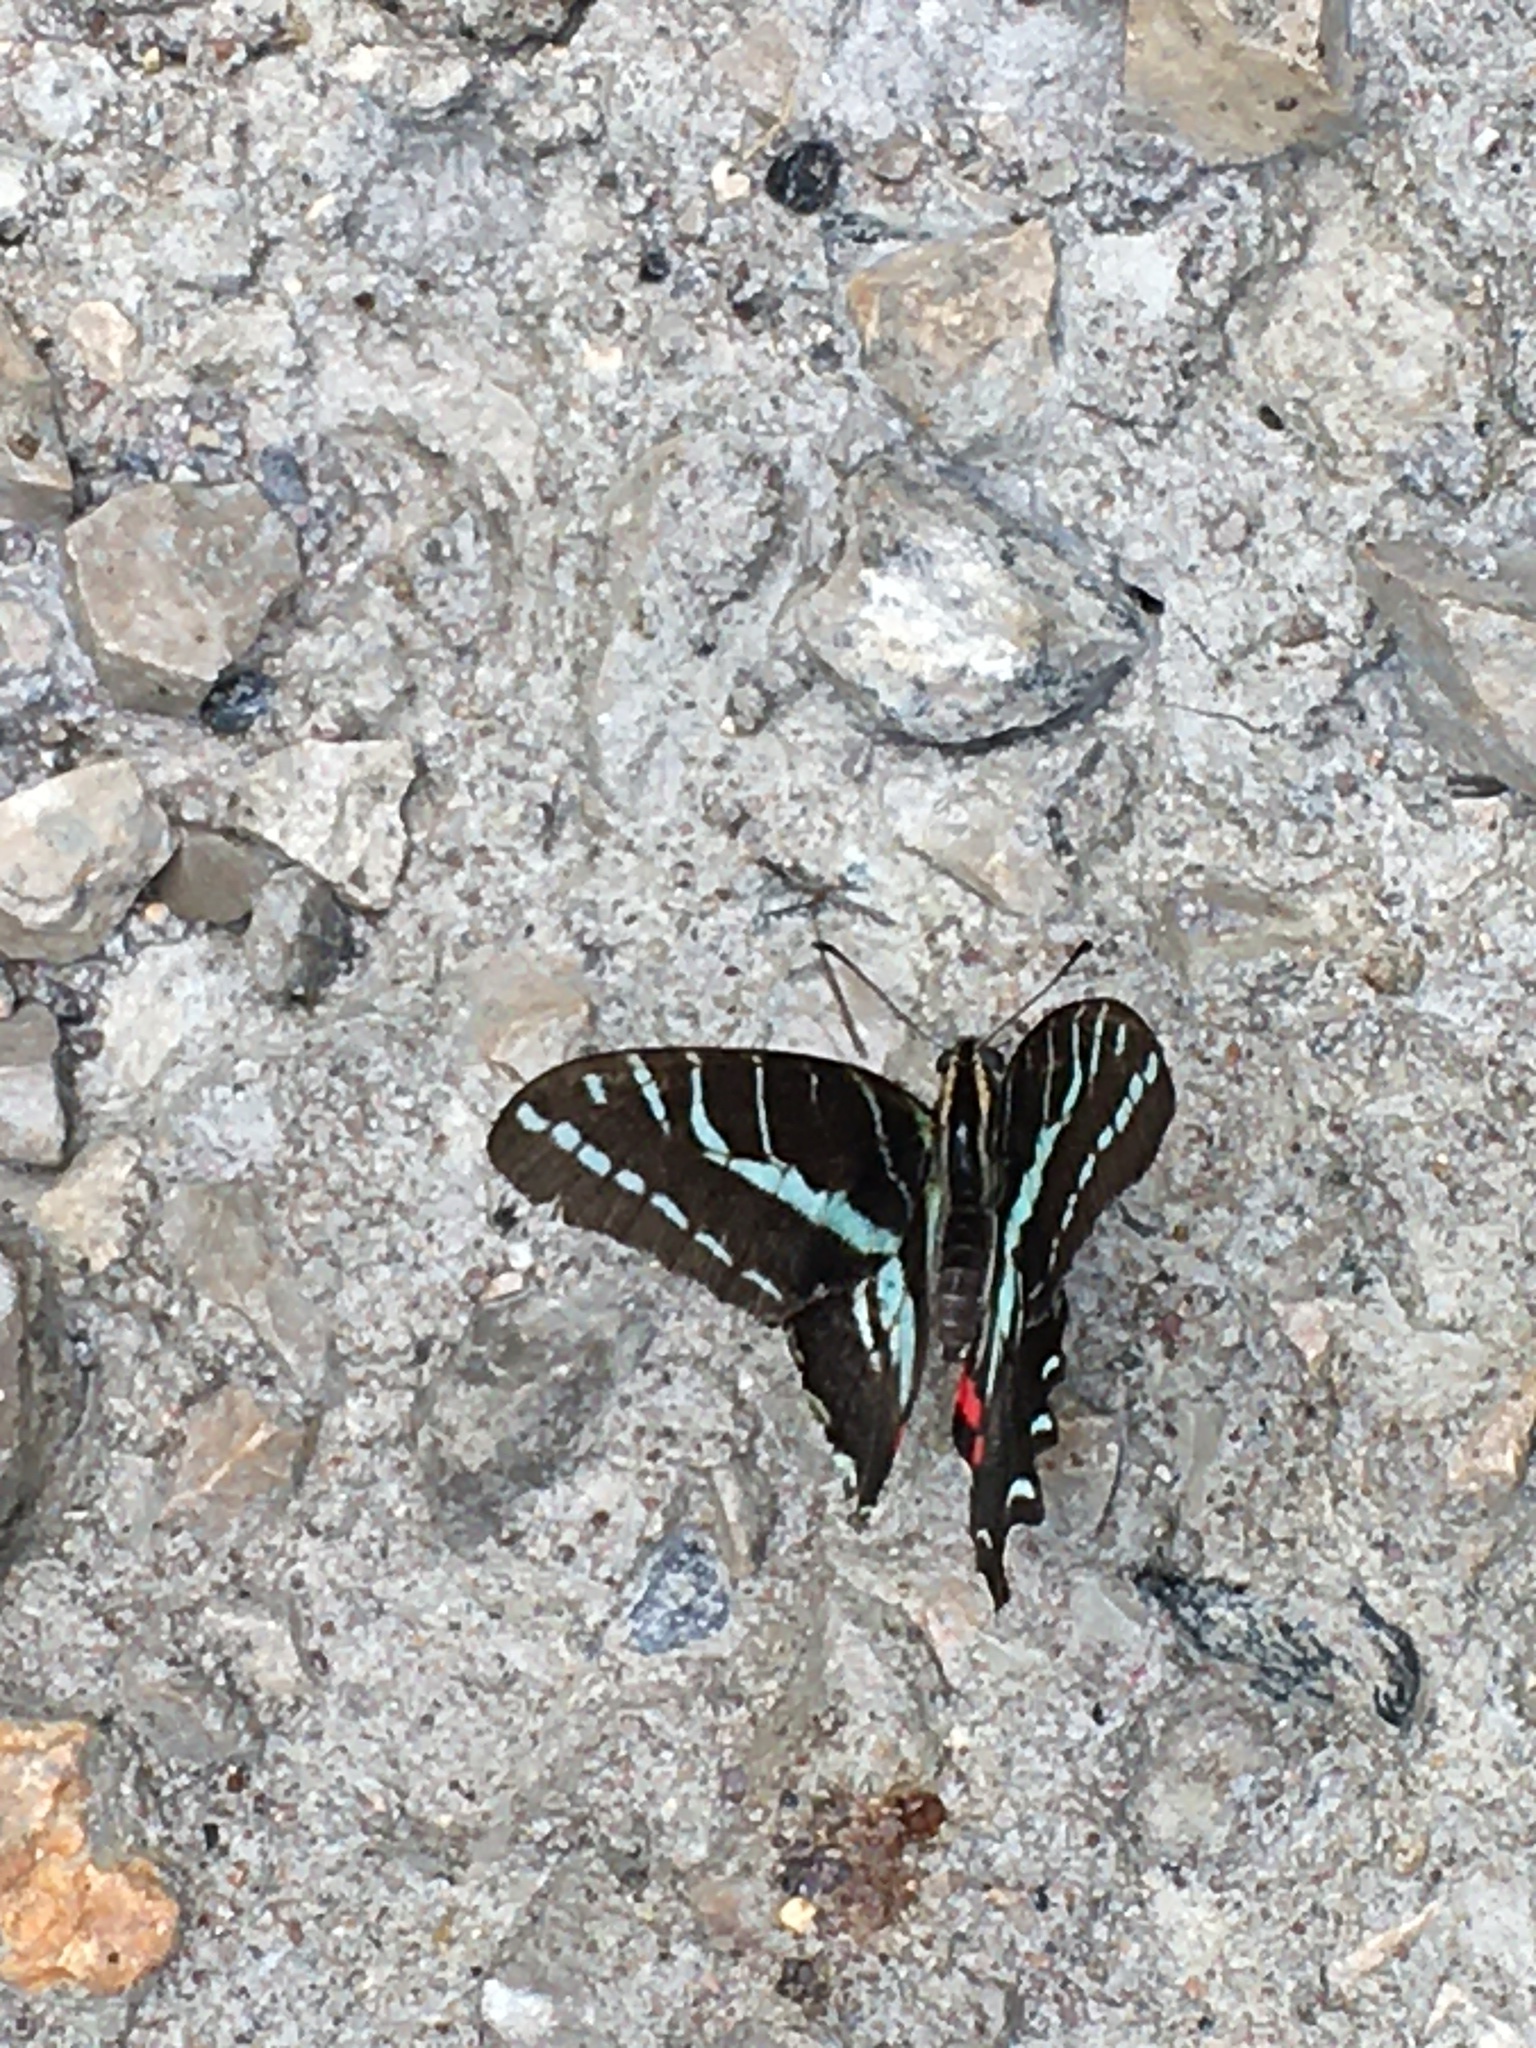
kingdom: Animalia
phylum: Arthropoda
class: Insecta
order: Lepidoptera
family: Papilionidae
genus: Protographium
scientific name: Protographium philolaus
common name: Dark zebra swallowtail
